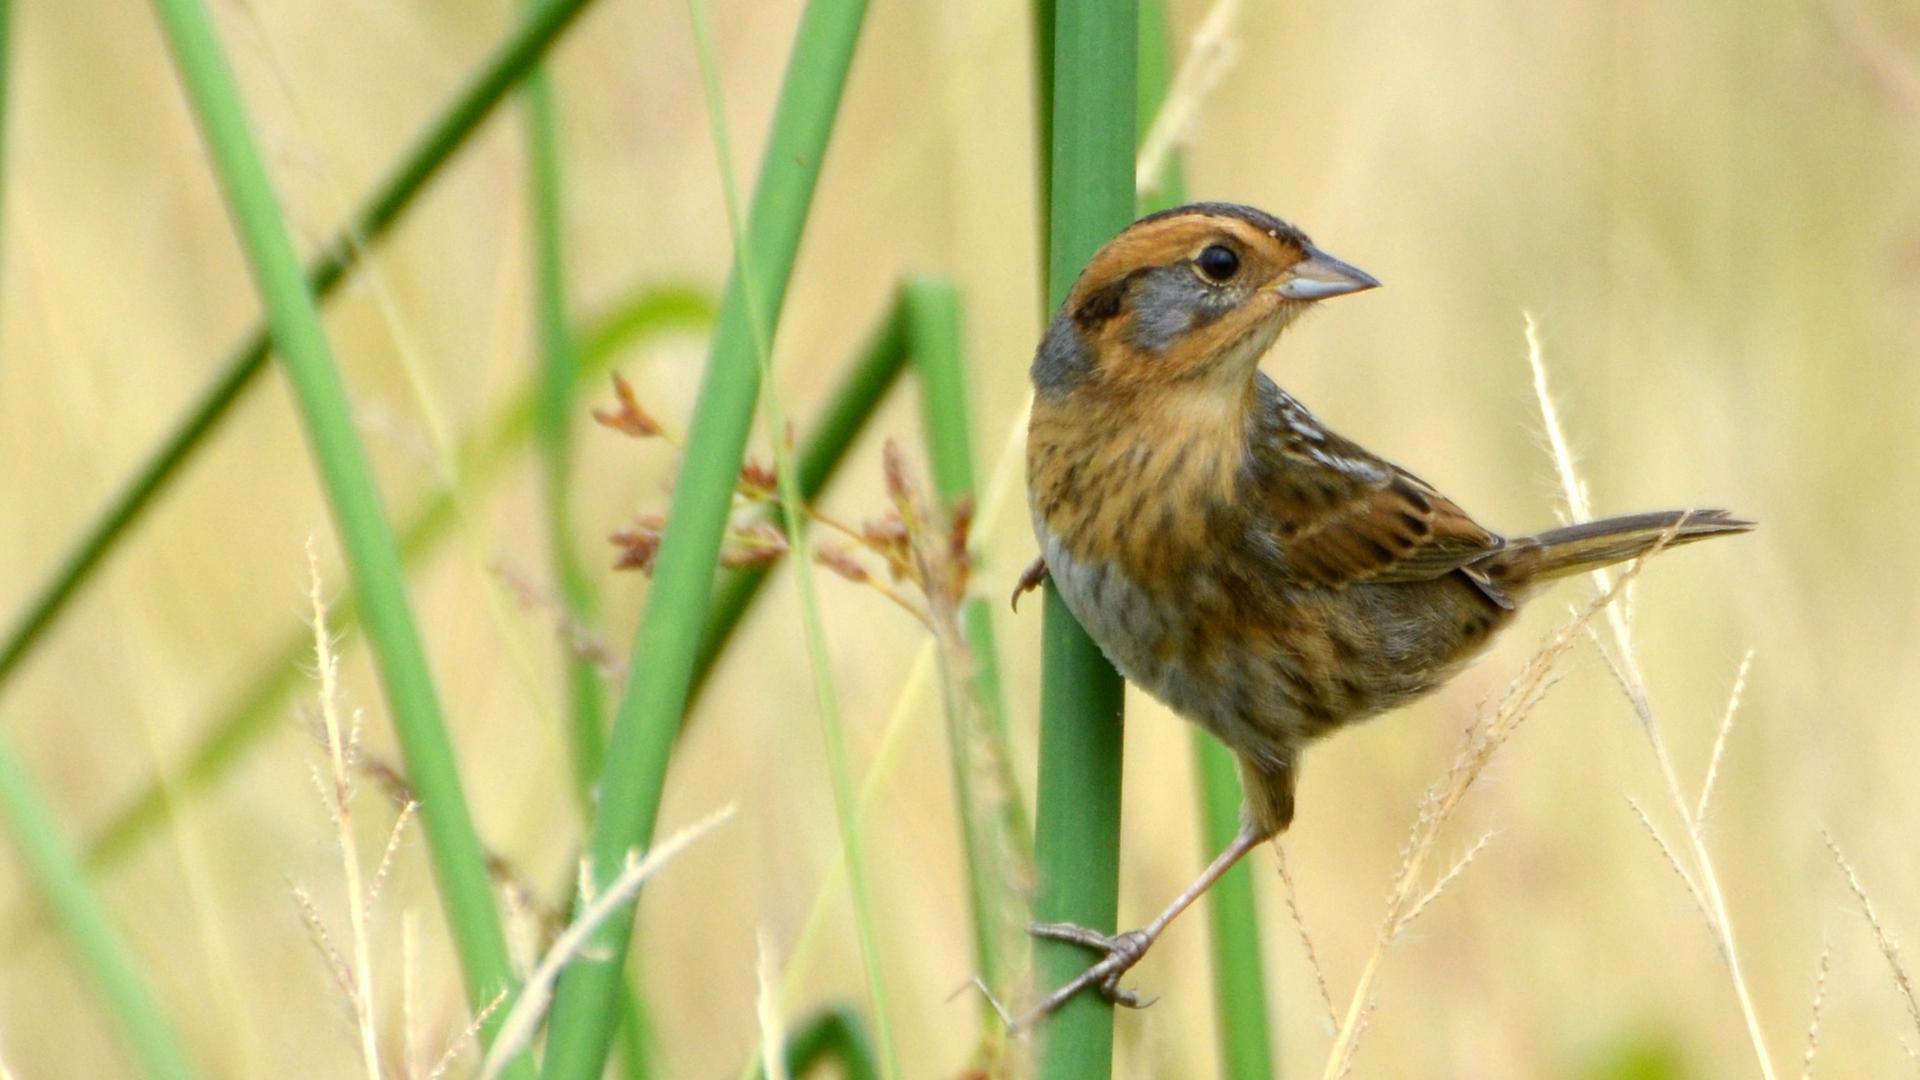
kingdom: Animalia
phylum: Chordata
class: Aves
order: Passeriformes
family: Passerellidae
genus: Ammospiza
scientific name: Ammospiza nelsoni
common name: Nelson's sparrow
